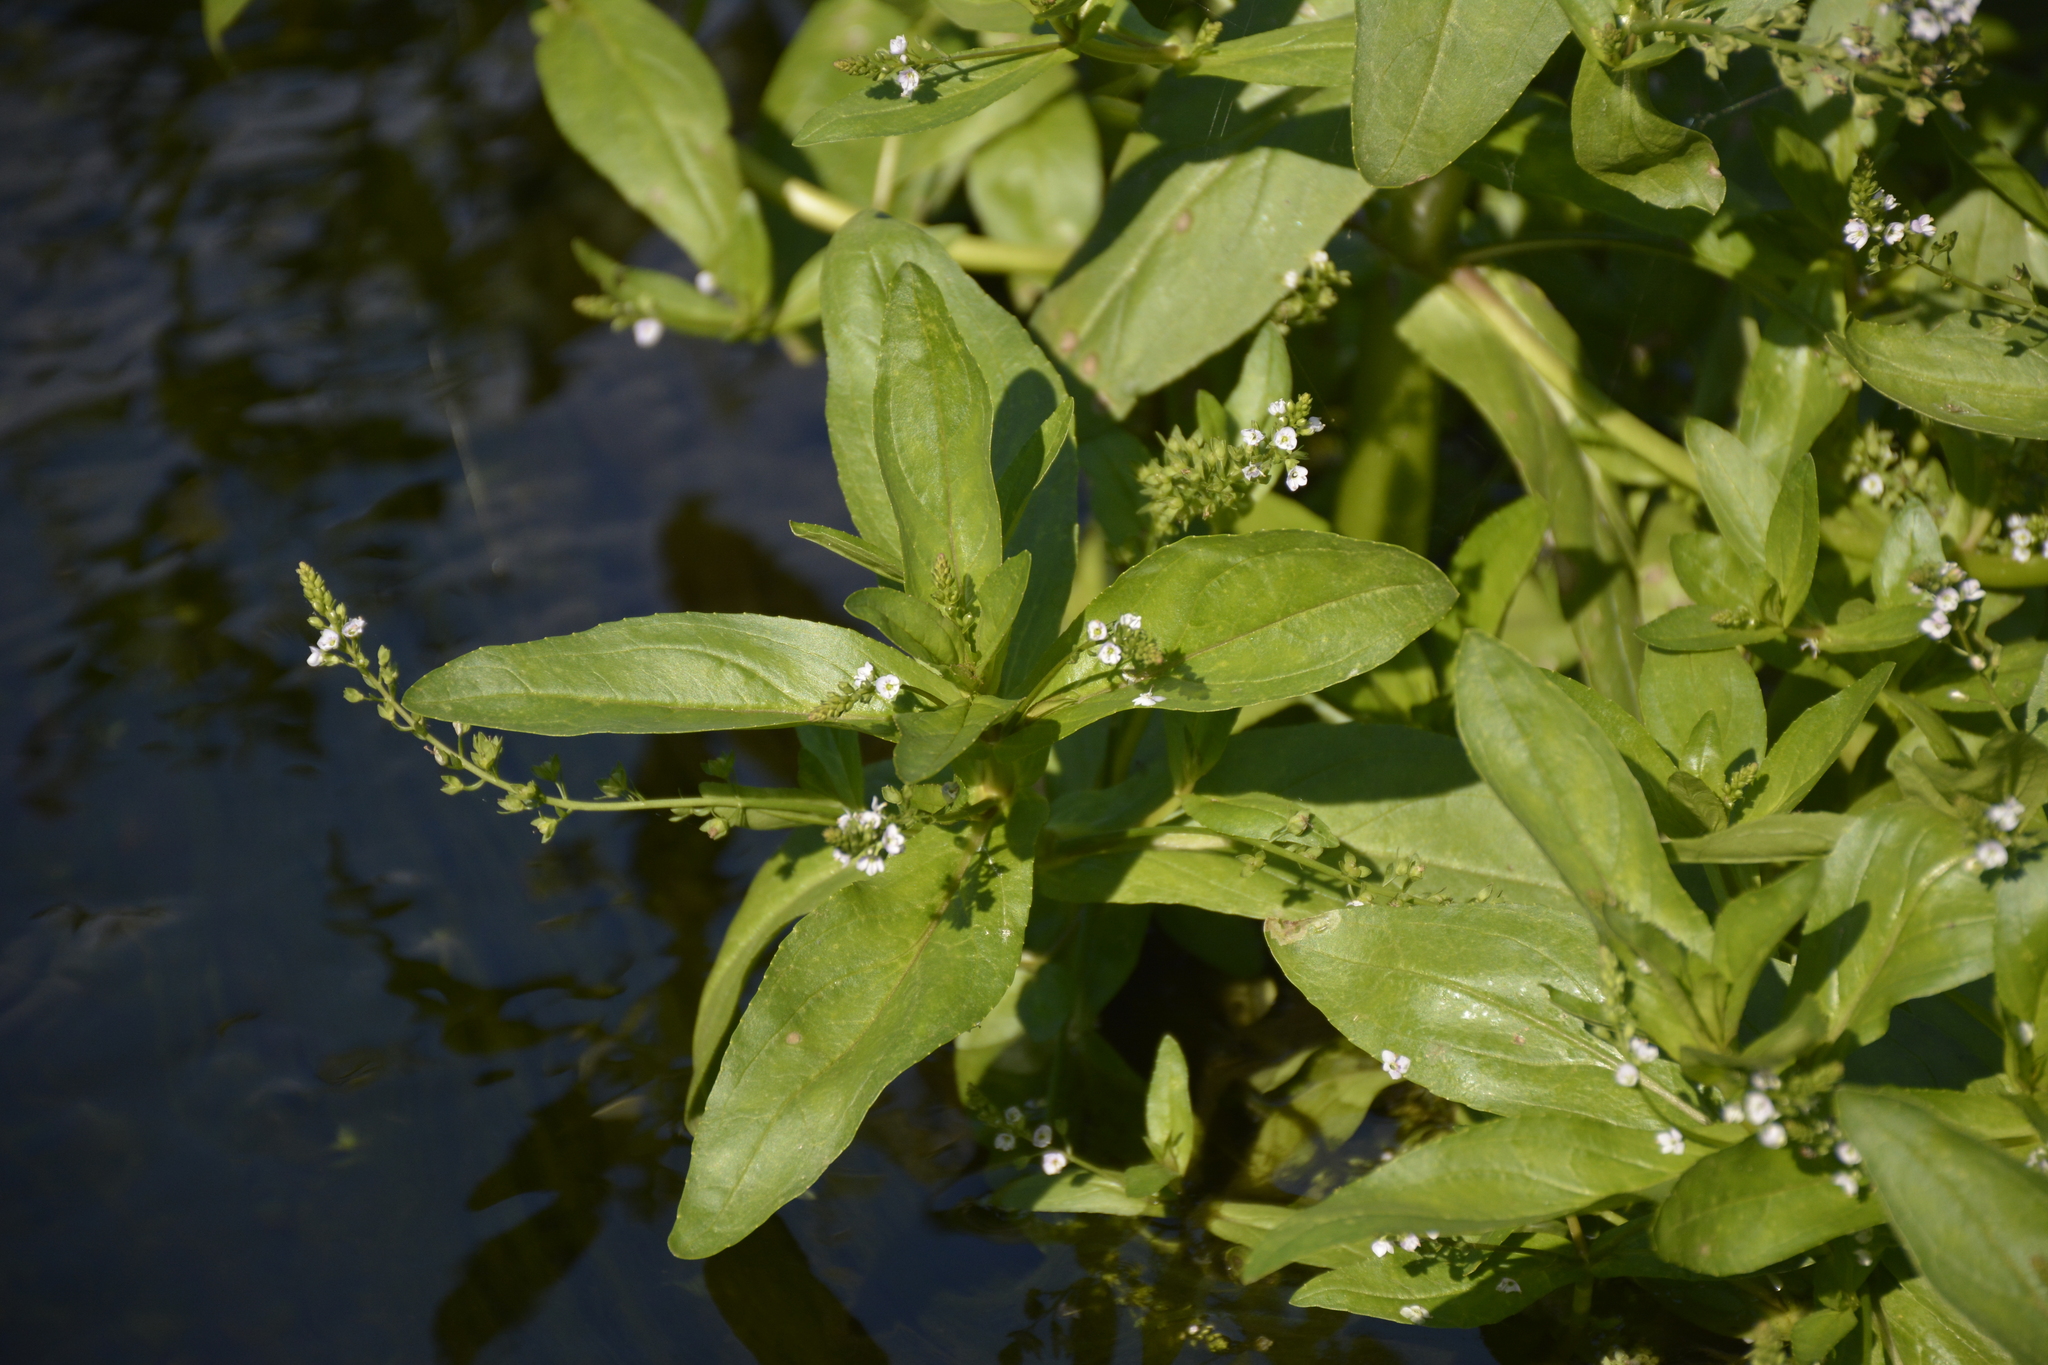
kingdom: Plantae
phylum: Tracheophyta
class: Magnoliopsida
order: Lamiales
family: Plantaginaceae
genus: Veronica
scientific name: Veronica anagallis-aquatica
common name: Water speedwell
